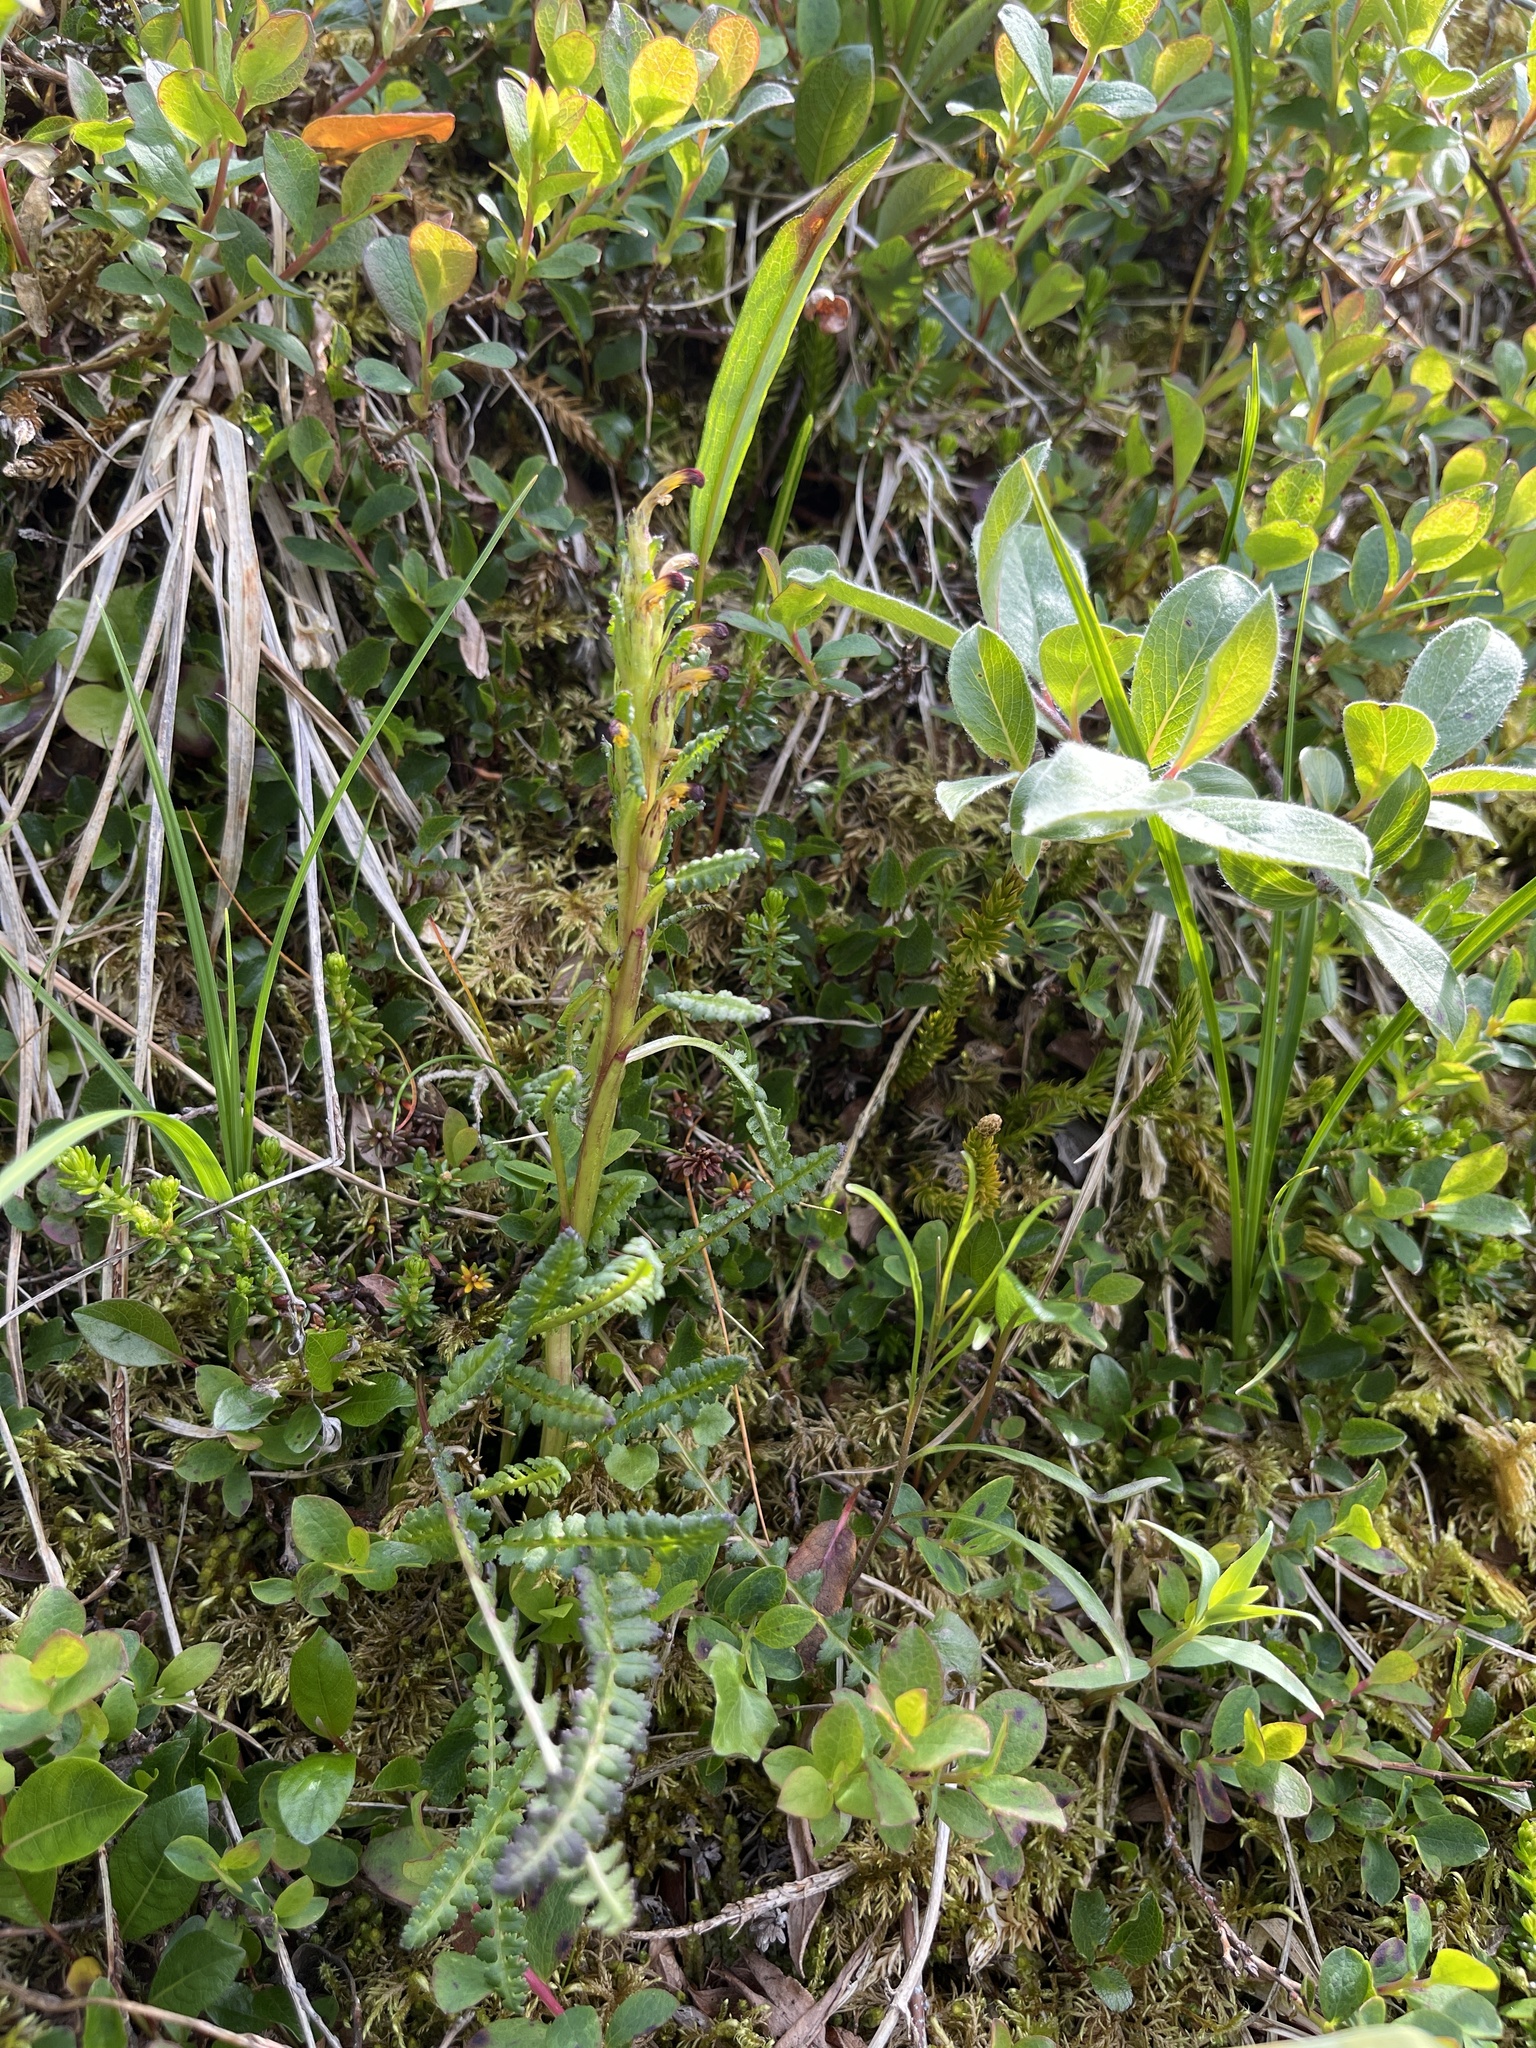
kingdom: Plantae
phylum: Tracheophyta
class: Magnoliopsida
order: Lamiales
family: Orobanchaceae
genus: Pedicularis
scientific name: Pedicularis flammea
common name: Flame-coloured lousewort
